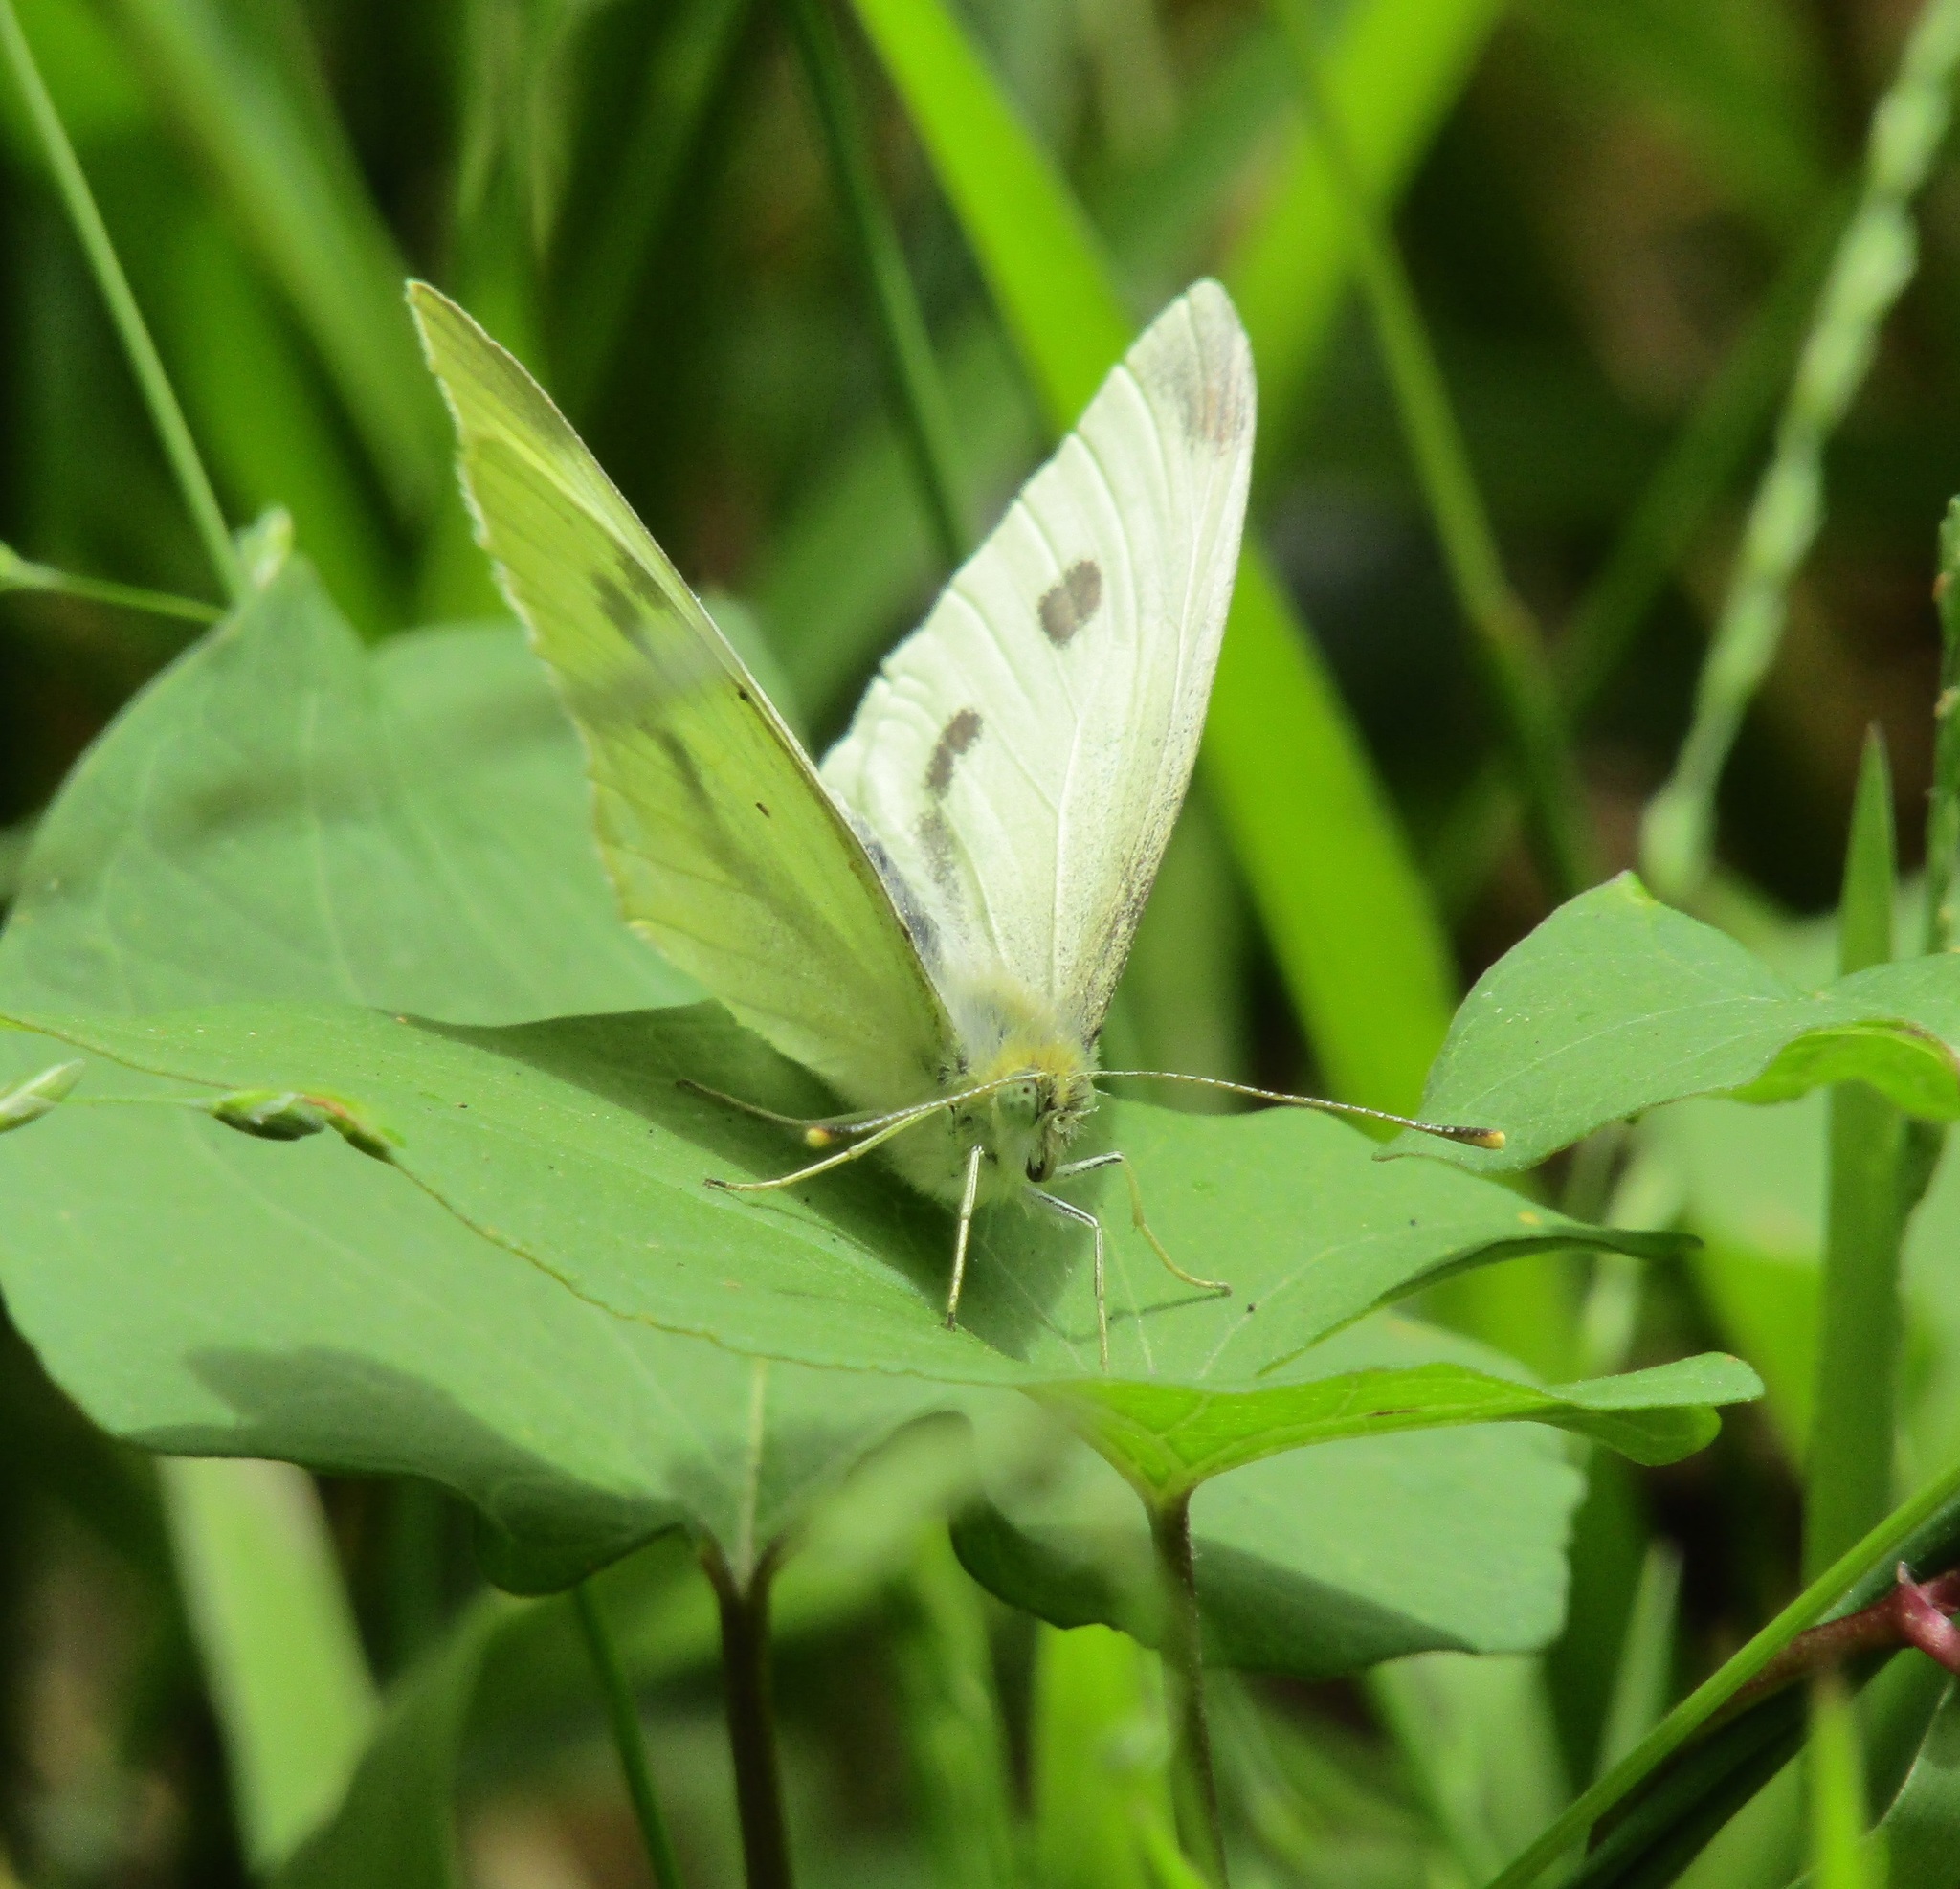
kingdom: Animalia
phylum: Arthropoda
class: Insecta
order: Lepidoptera
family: Pieridae
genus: Pieris
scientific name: Pieris rapae
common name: Small white
